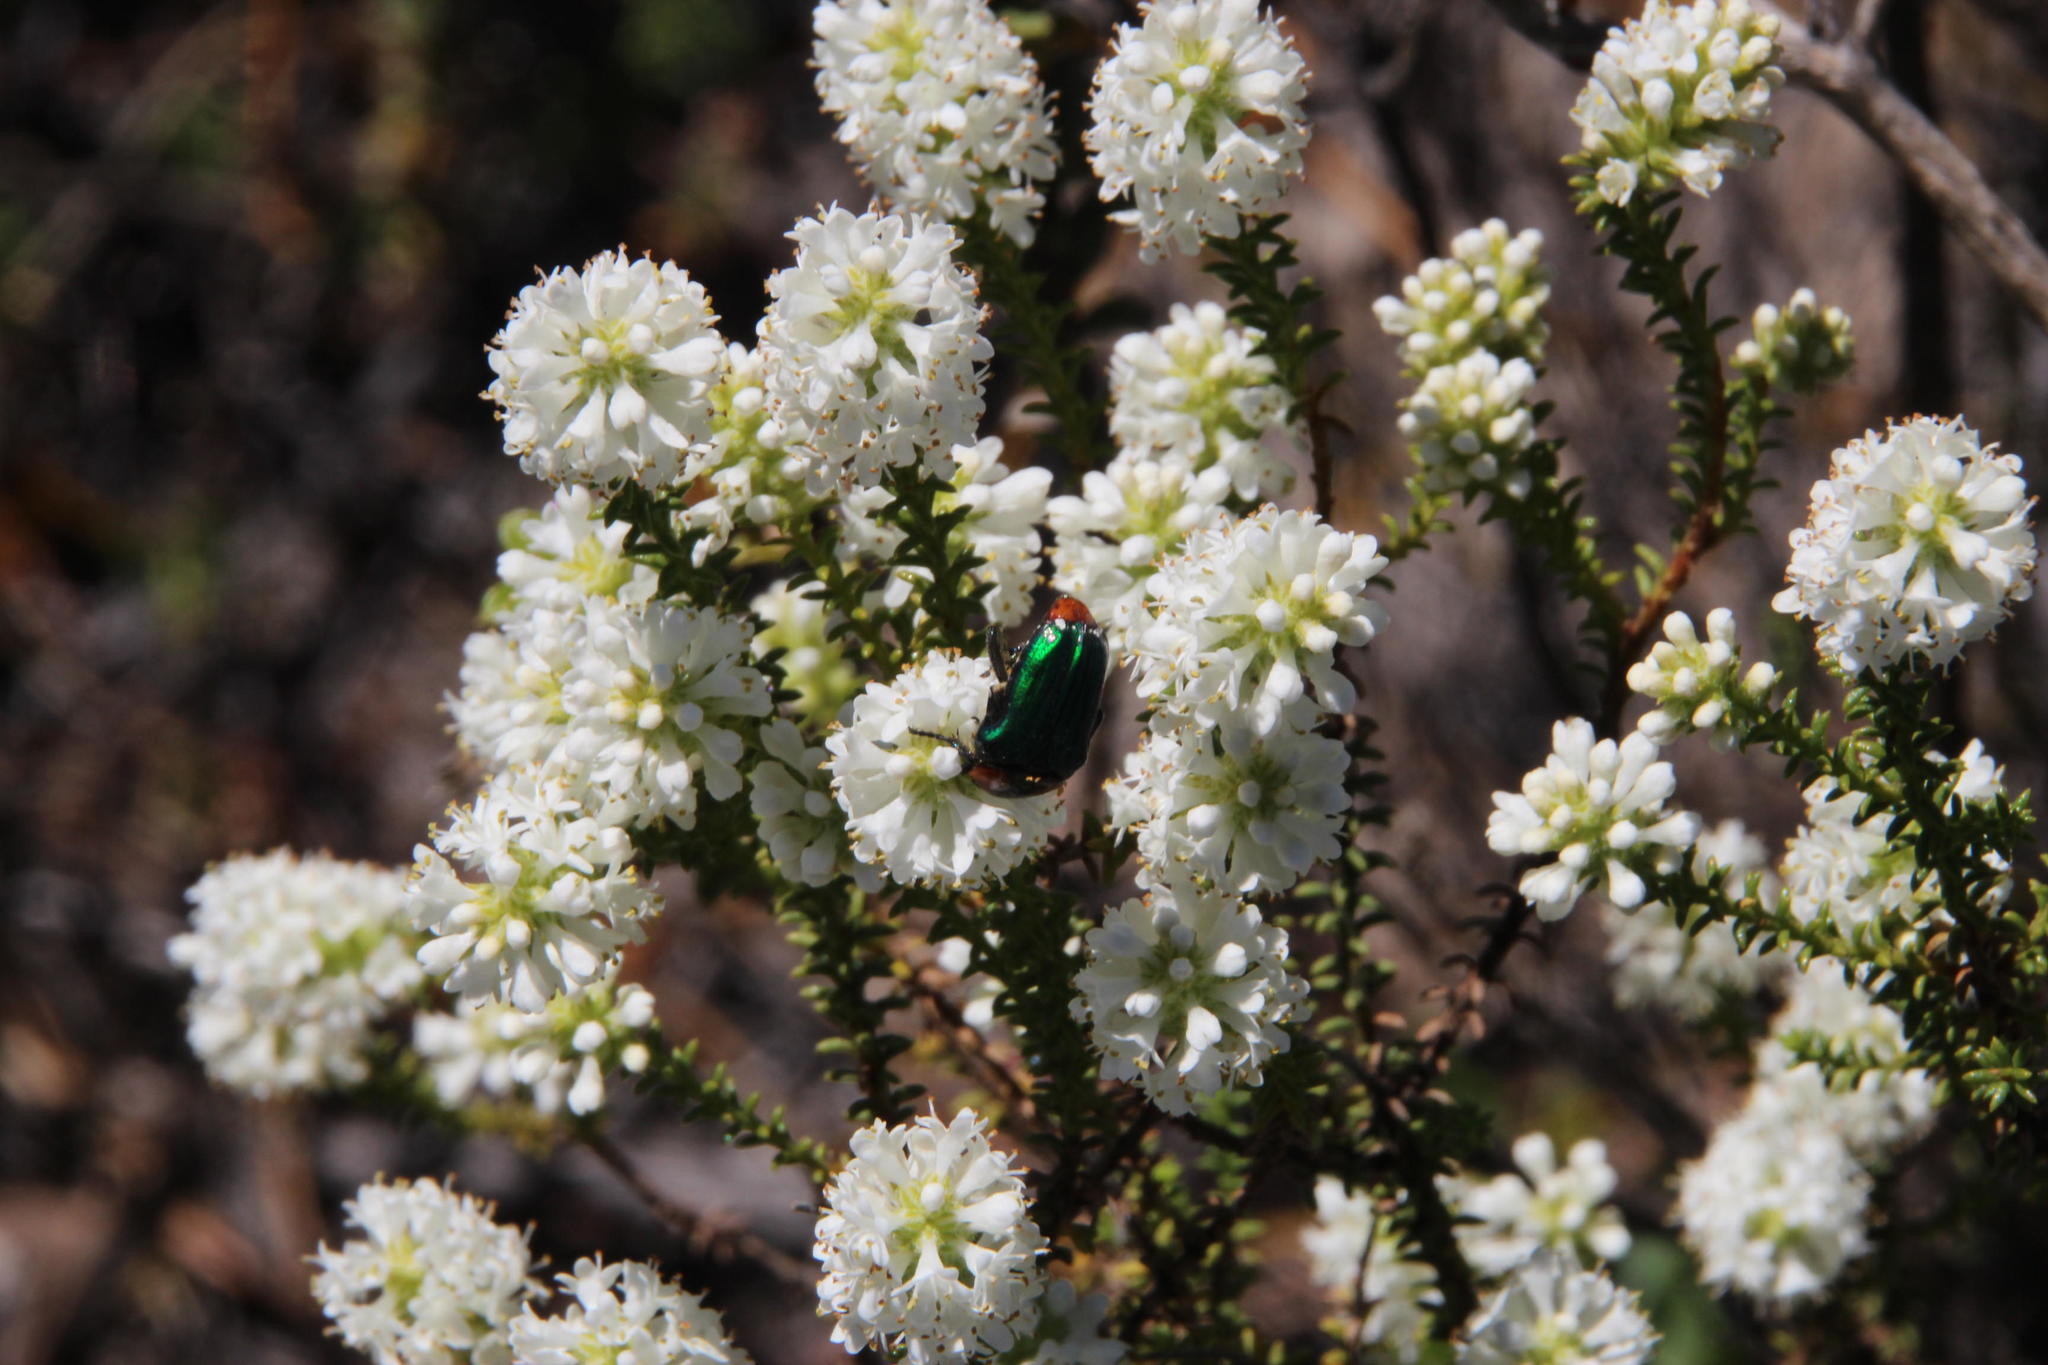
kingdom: Animalia
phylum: Arthropoda
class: Insecta
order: Coleoptera
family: Scarabaeidae
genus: Leucocelis
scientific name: Leucocelis haemorrhoidalis
